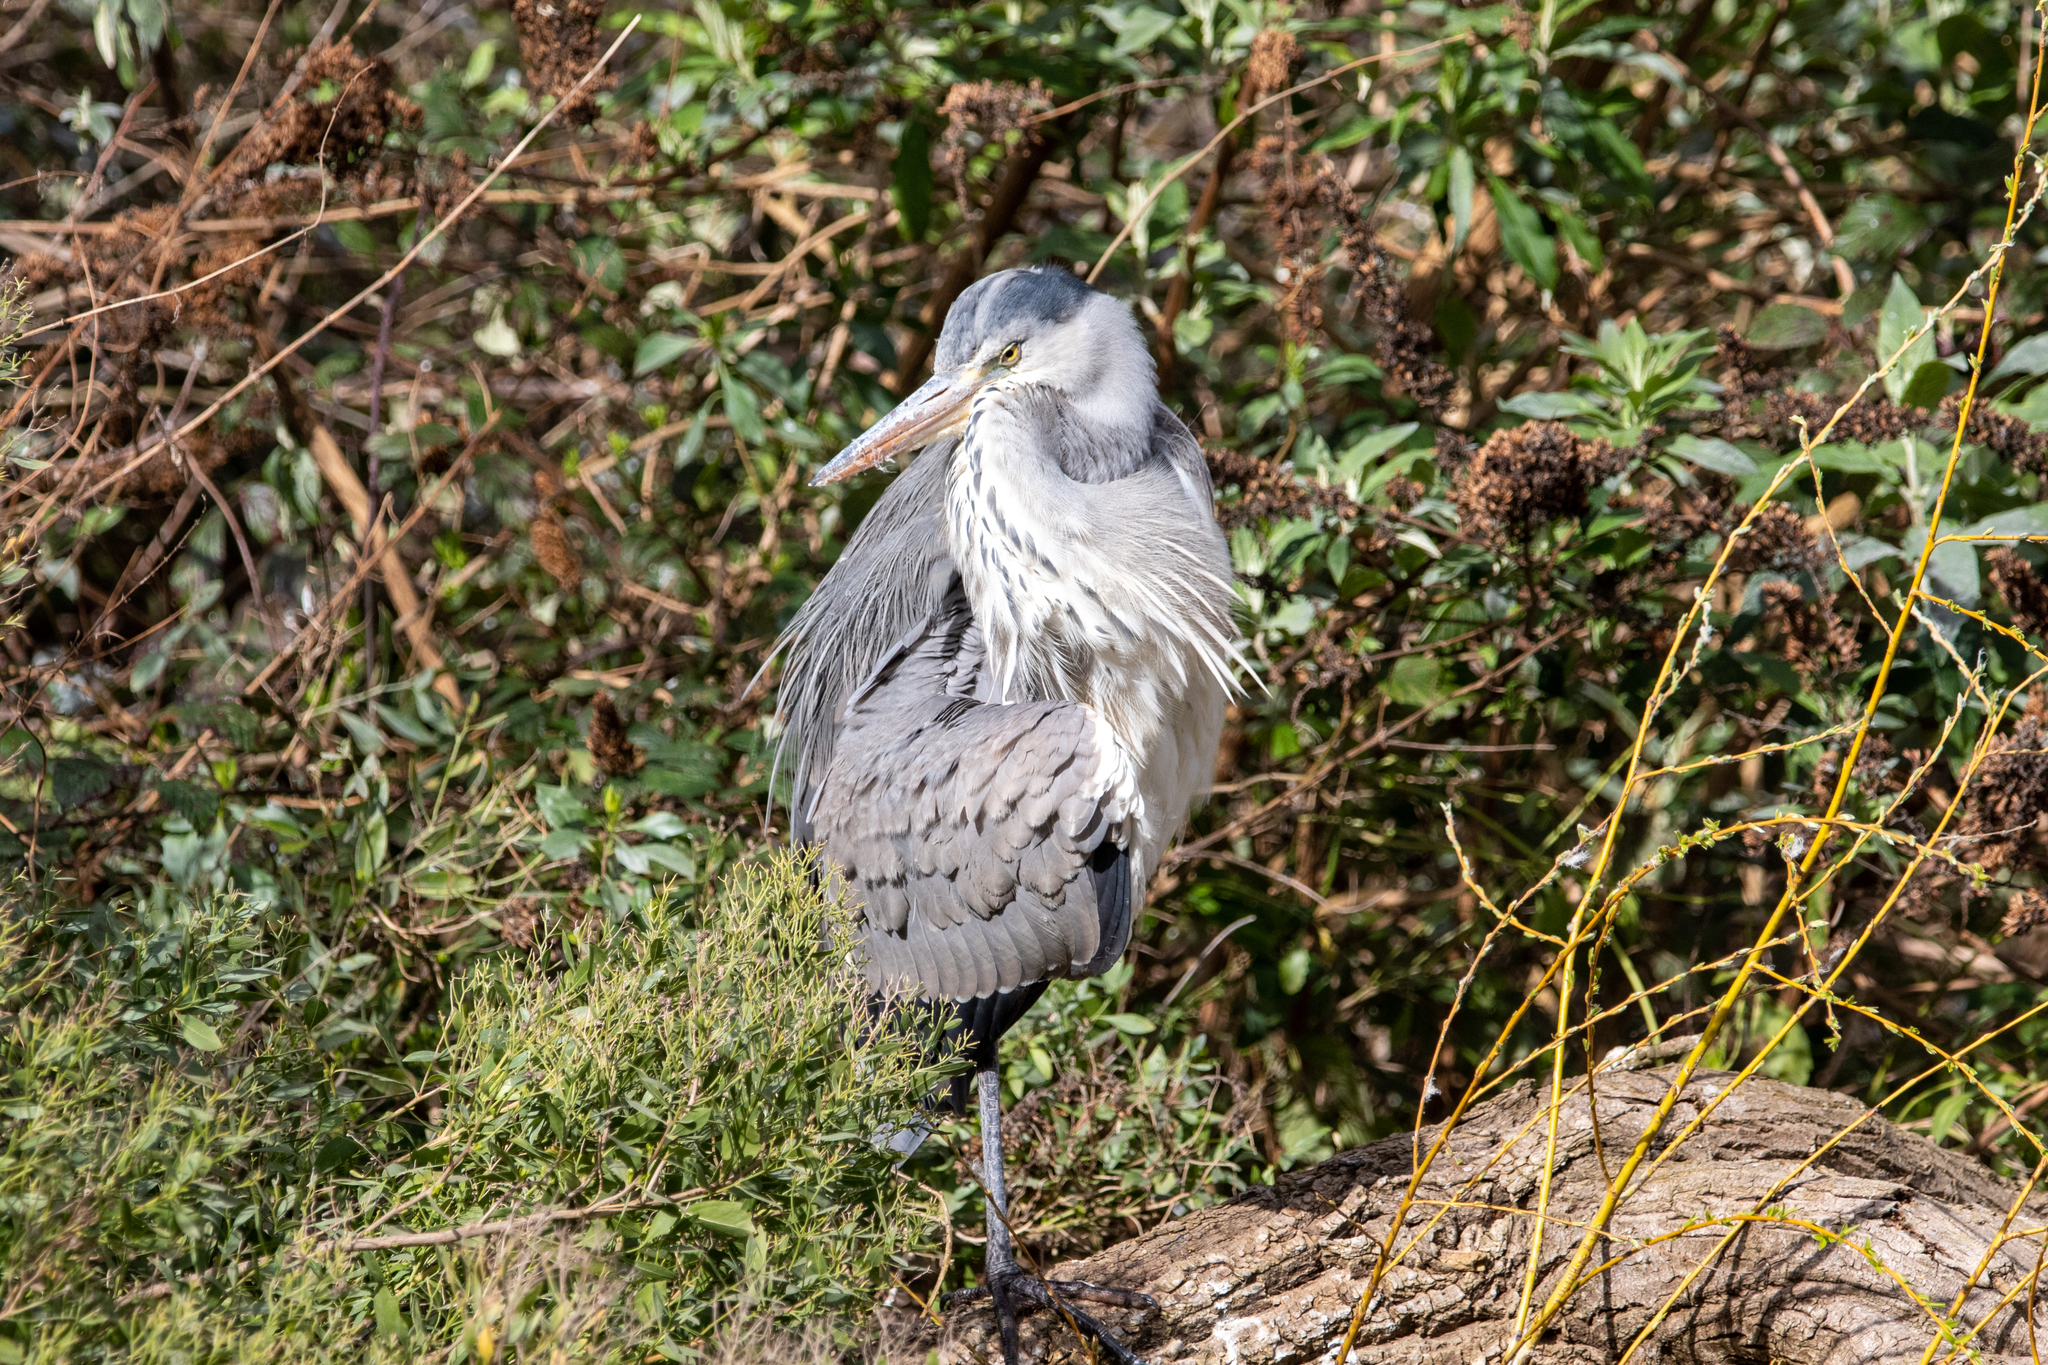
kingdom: Animalia
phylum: Chordata
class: Aves
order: Pelecaniformes
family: Ardeidae
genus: Ardea
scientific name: Ardea cinerea
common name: Grey heron
